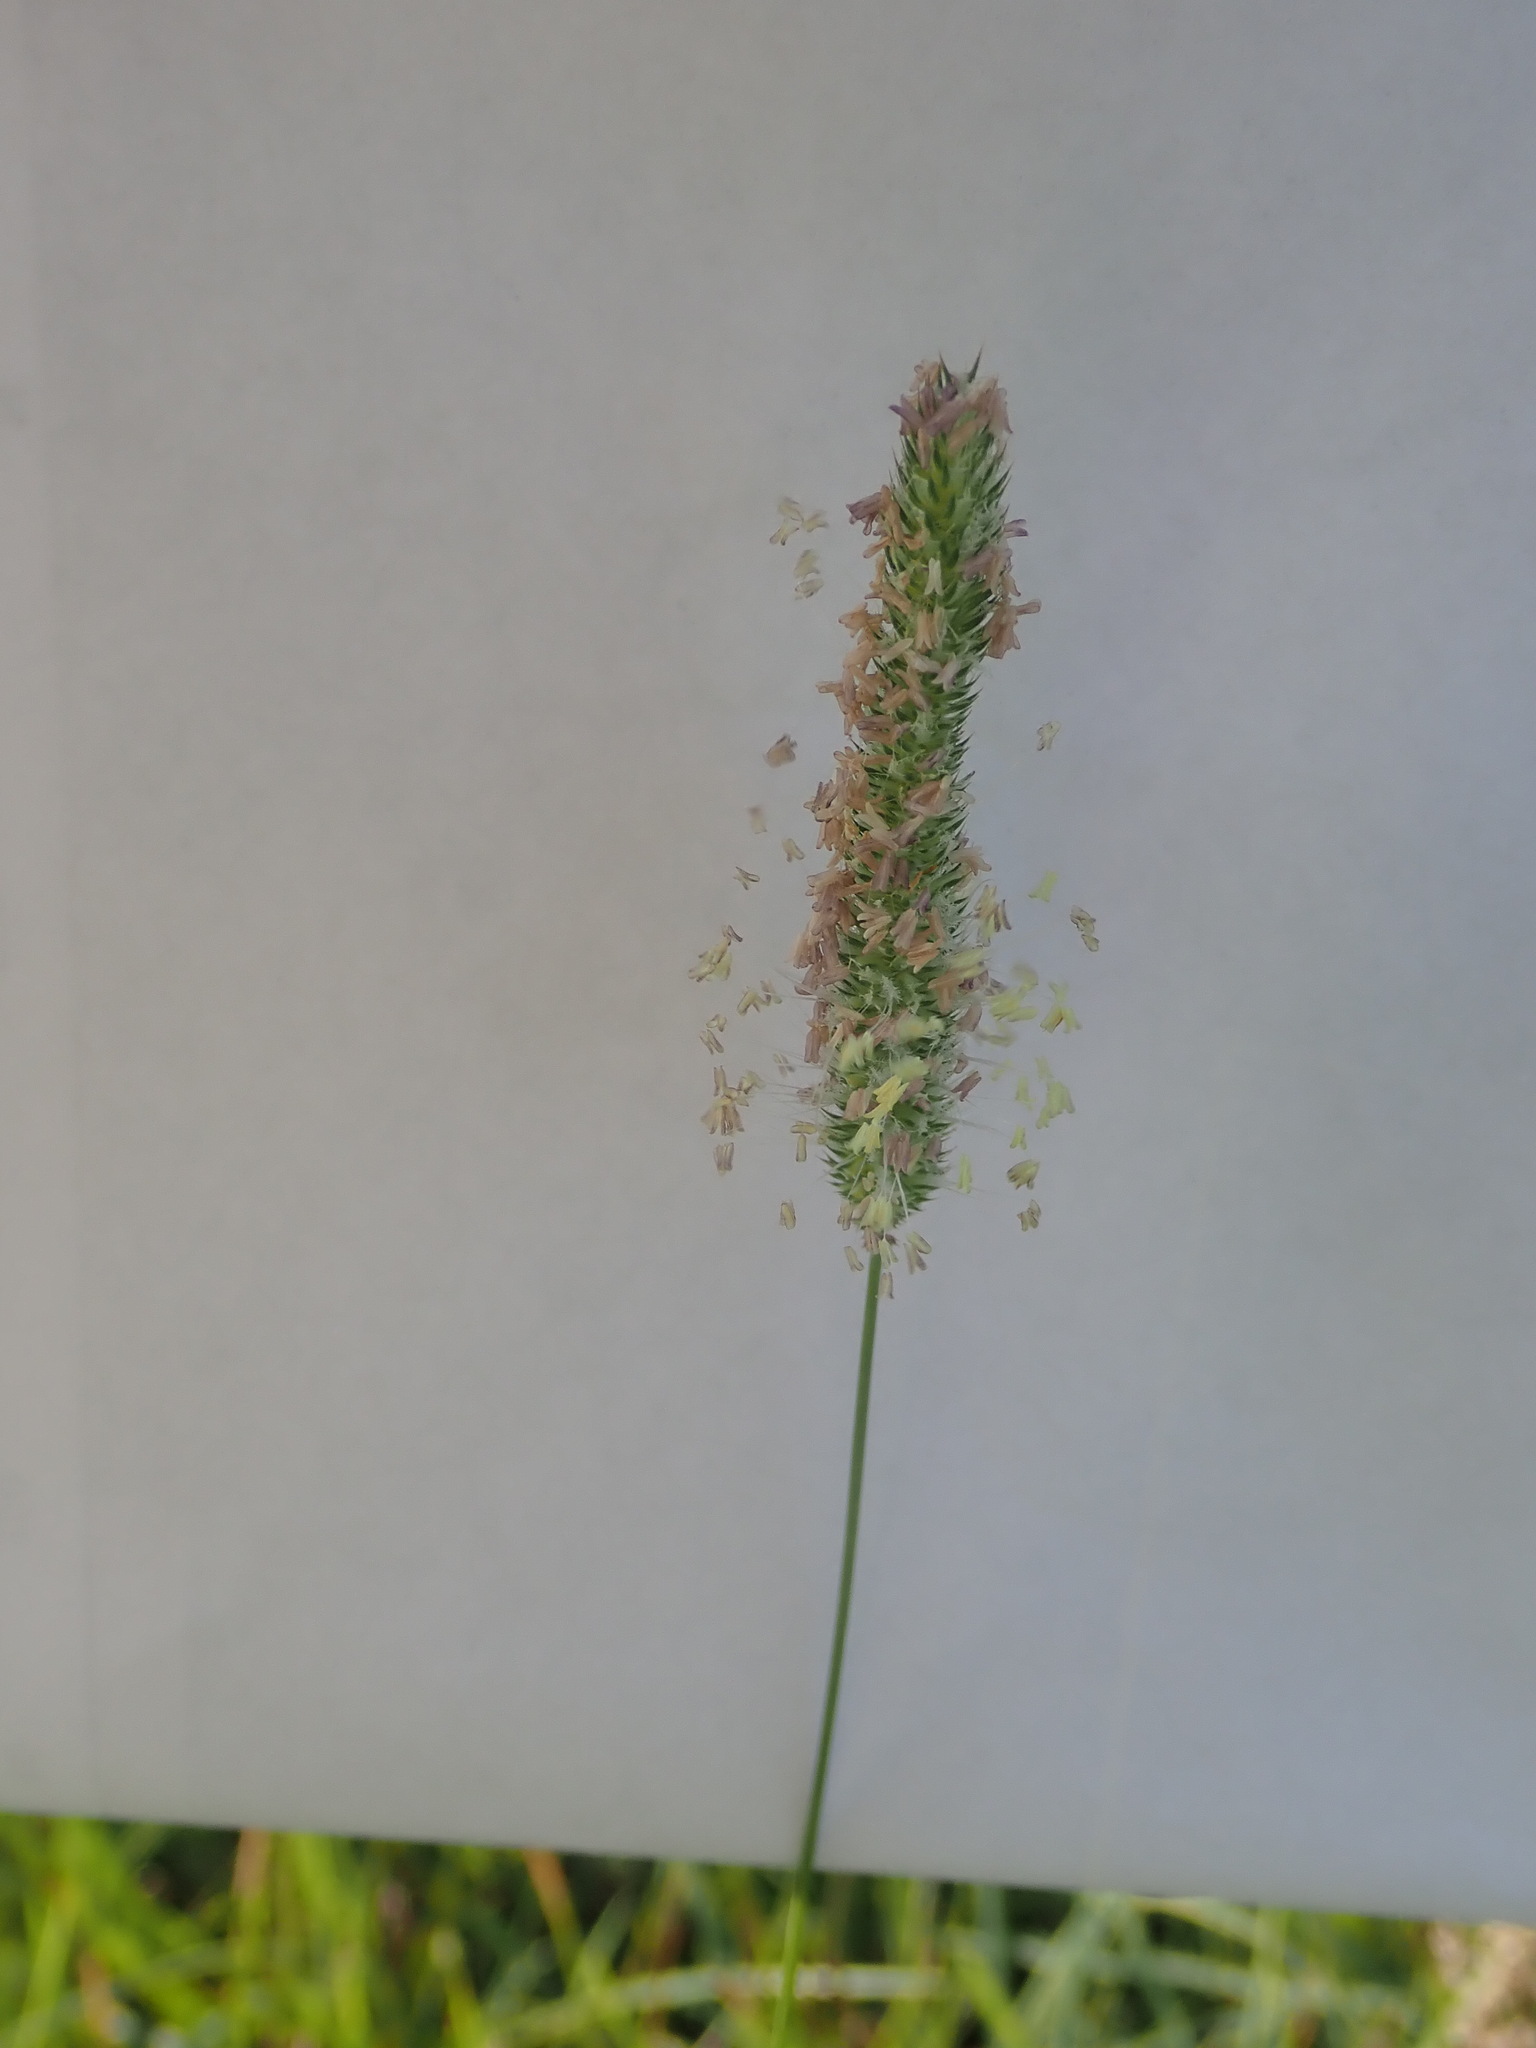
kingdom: Plantae
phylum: Tracheophyta
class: Liliopsida
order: Poales
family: Poaceae
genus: Phleum
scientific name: Phleum pratense
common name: Timothy grass
